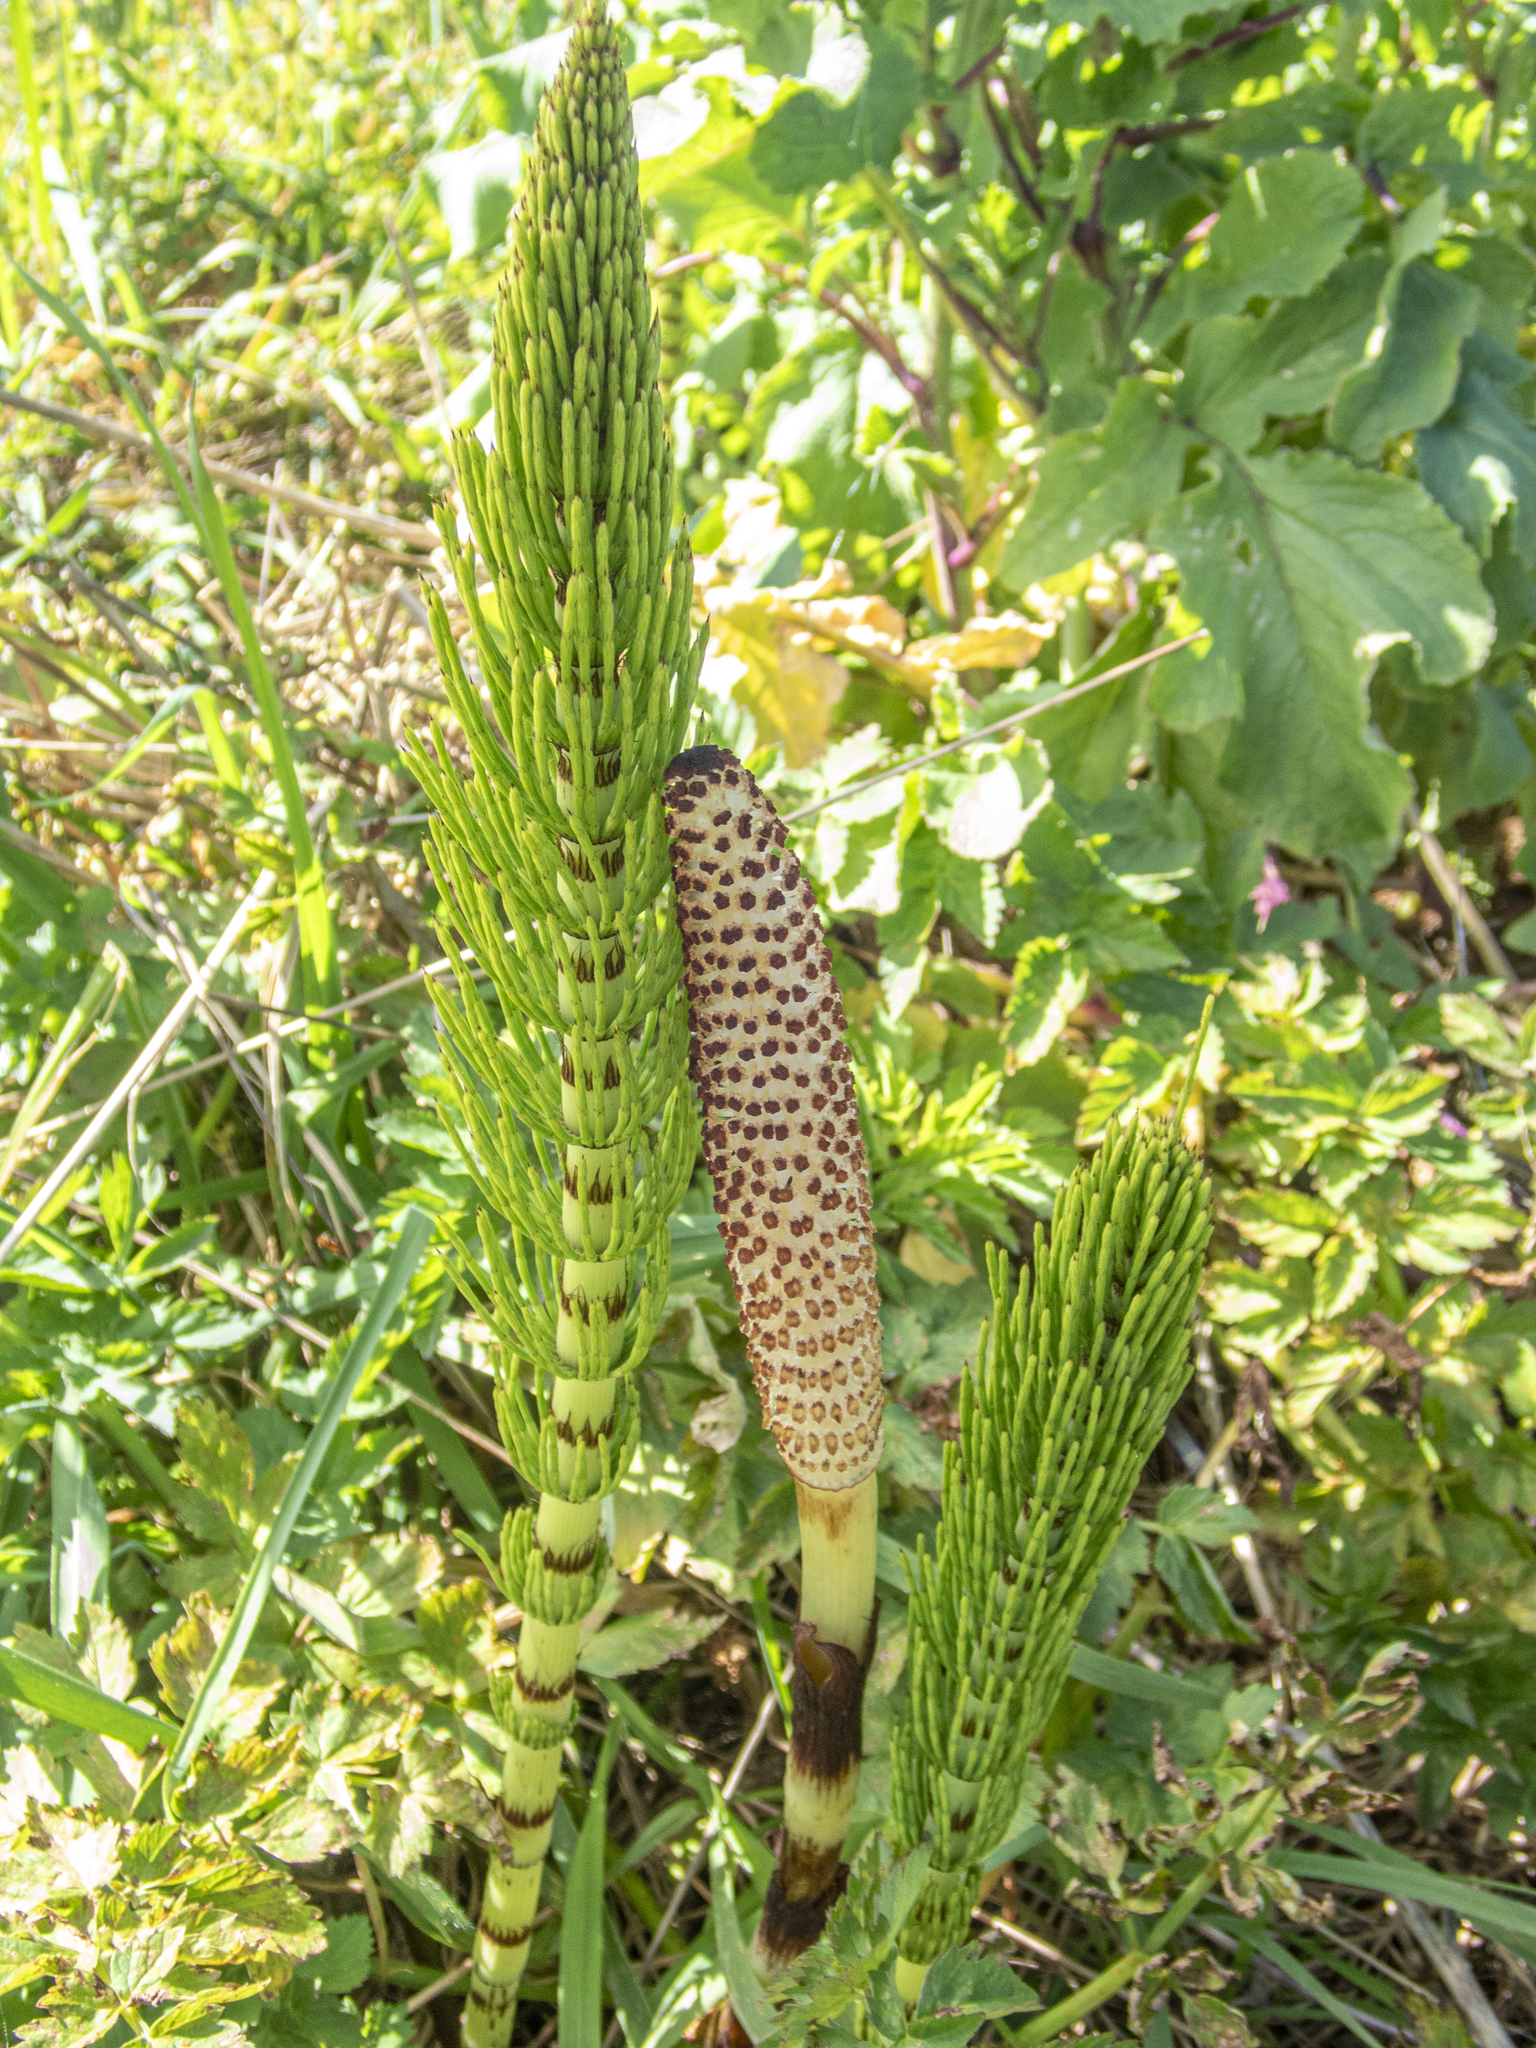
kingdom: Plantae
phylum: Tracheophyta
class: Polypodiopsida
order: Equisetales
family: Equisetaceae
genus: Equisetum
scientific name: Equisetum telmateia
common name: Great horsetail
